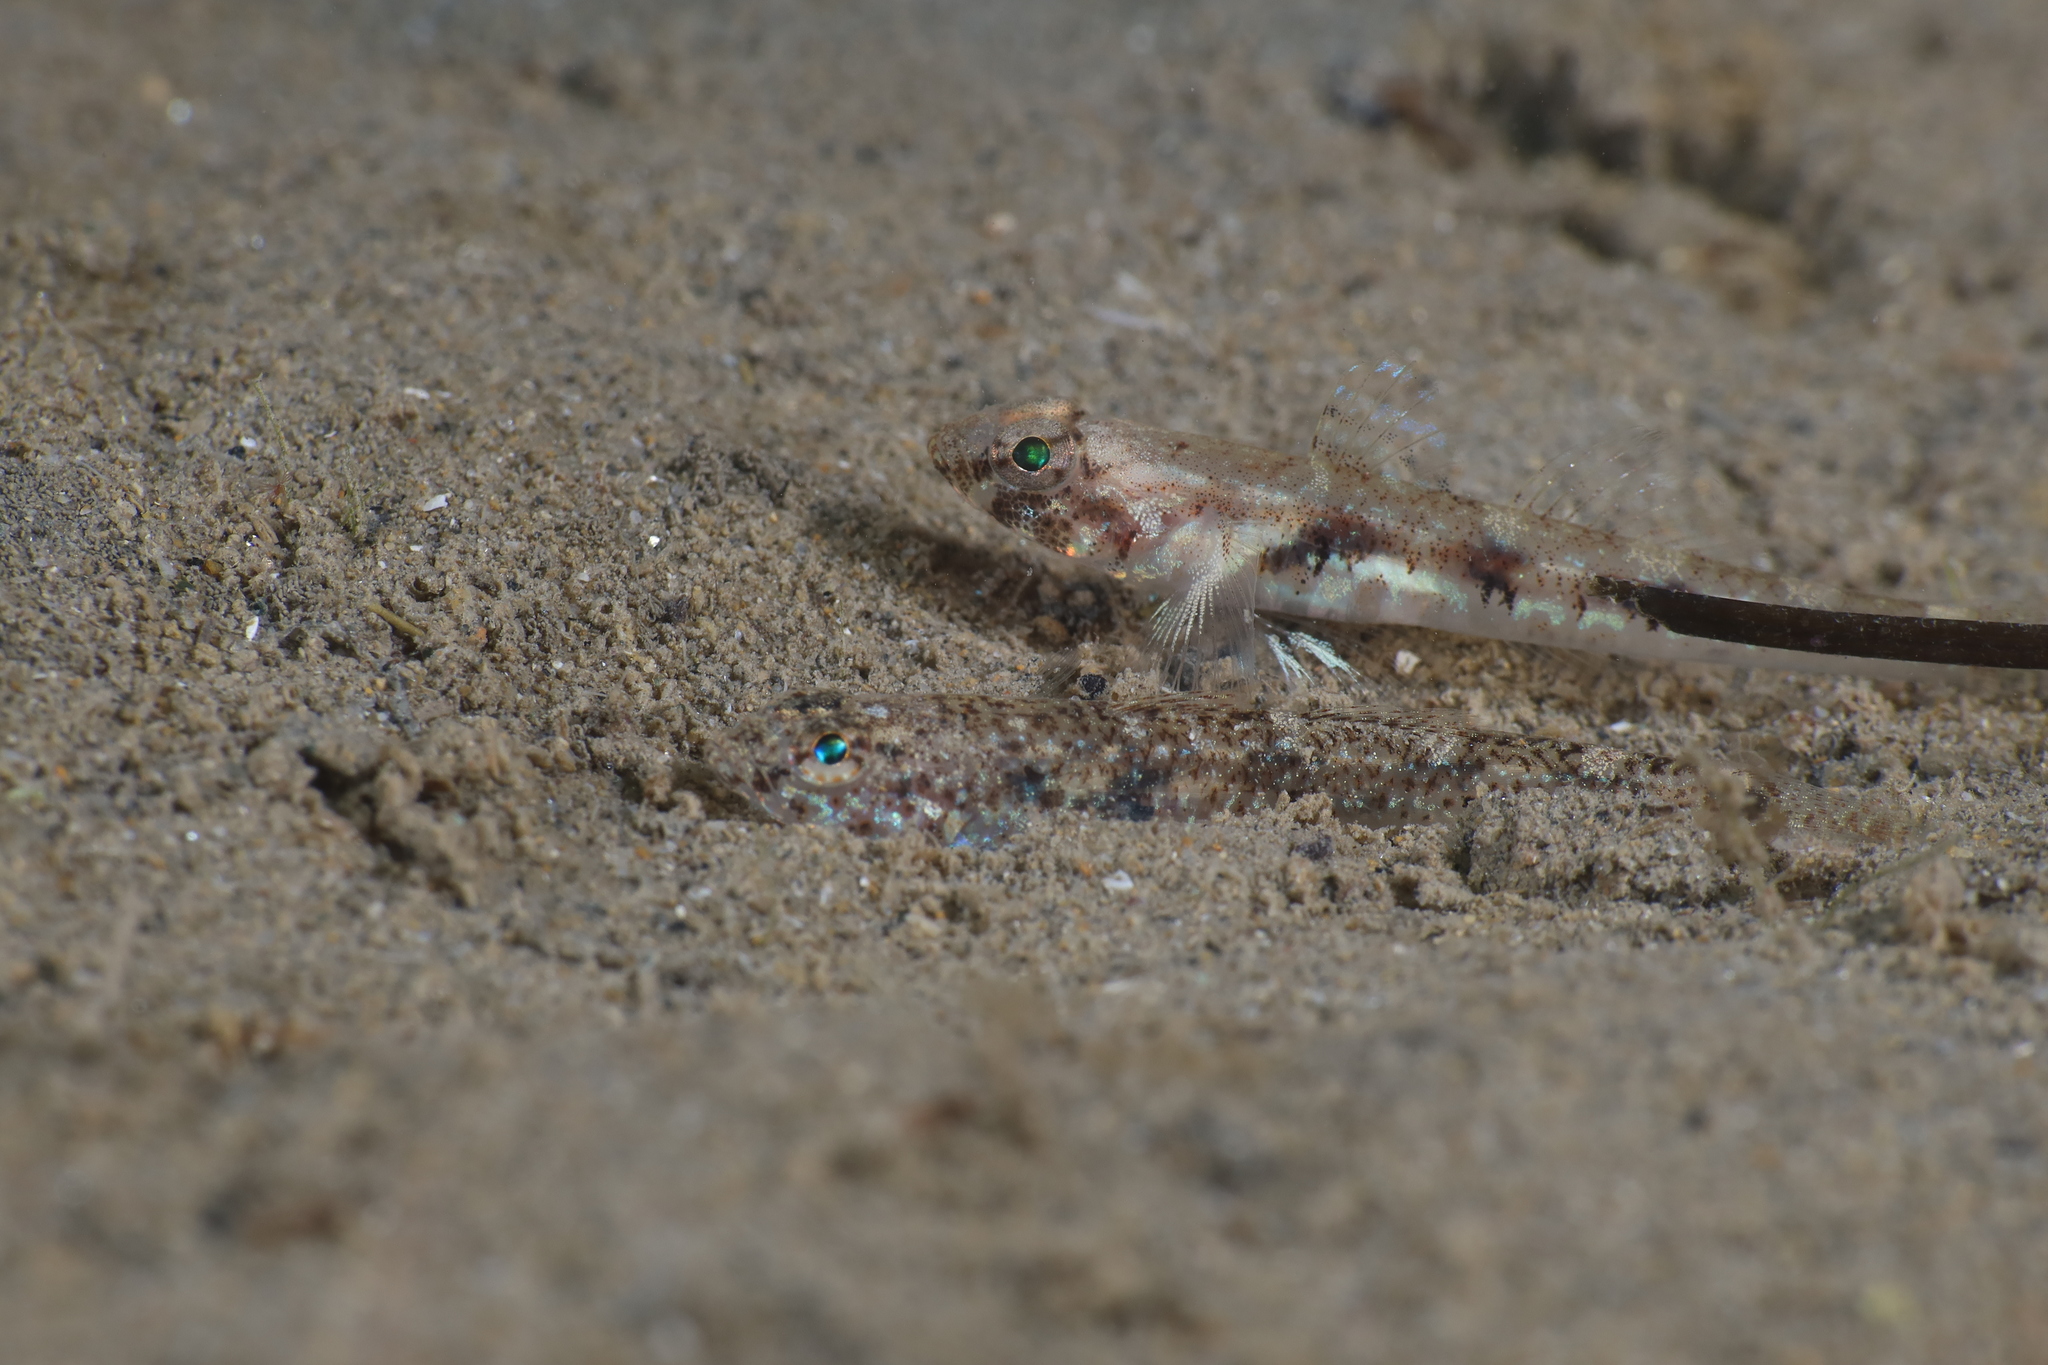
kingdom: Animalia
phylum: Chordata
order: Perciformes
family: Gobiidae
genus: Pomatoschistus
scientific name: Pomatoschistus pictus
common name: Painted goby
